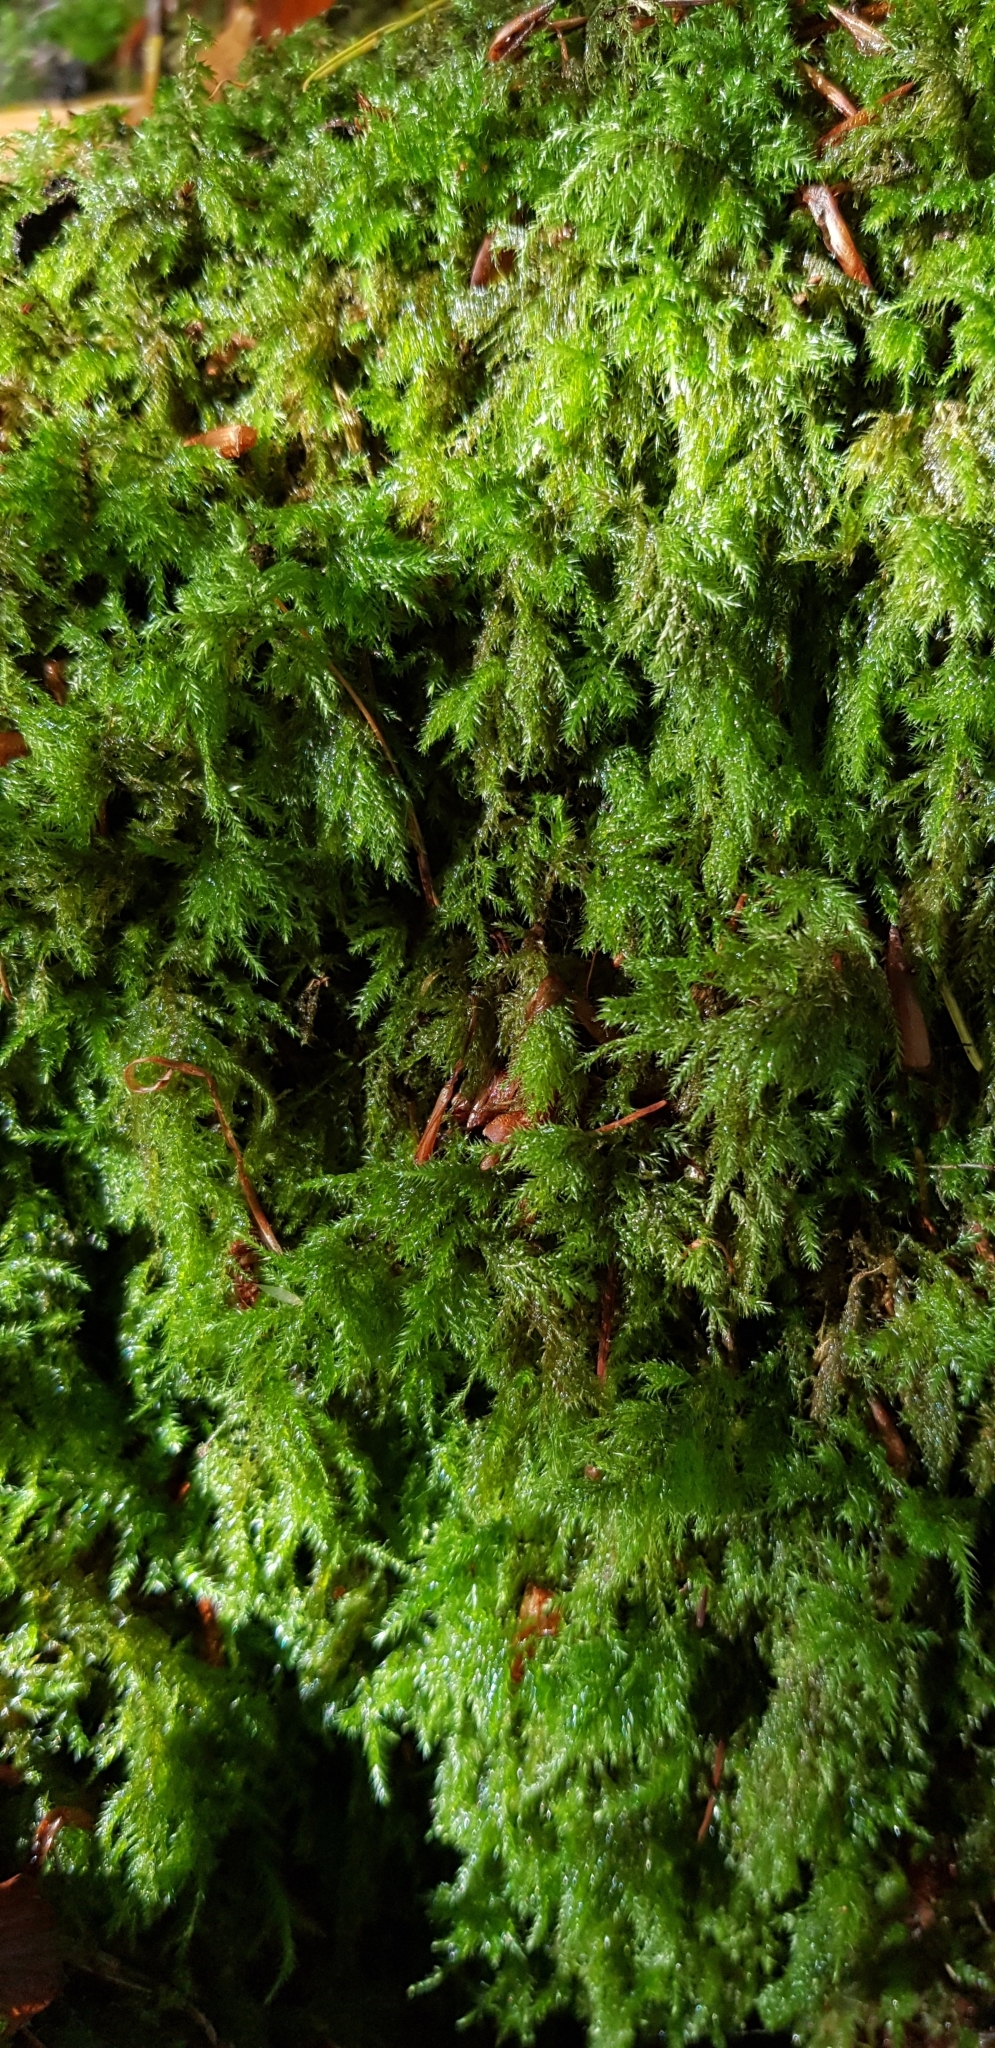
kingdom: Plantae
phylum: Bryophyta
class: Bryopsida
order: Hypnales
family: Lembophyllaceae
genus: Pseudisothecium
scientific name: Pseudisothecium myosuroides
